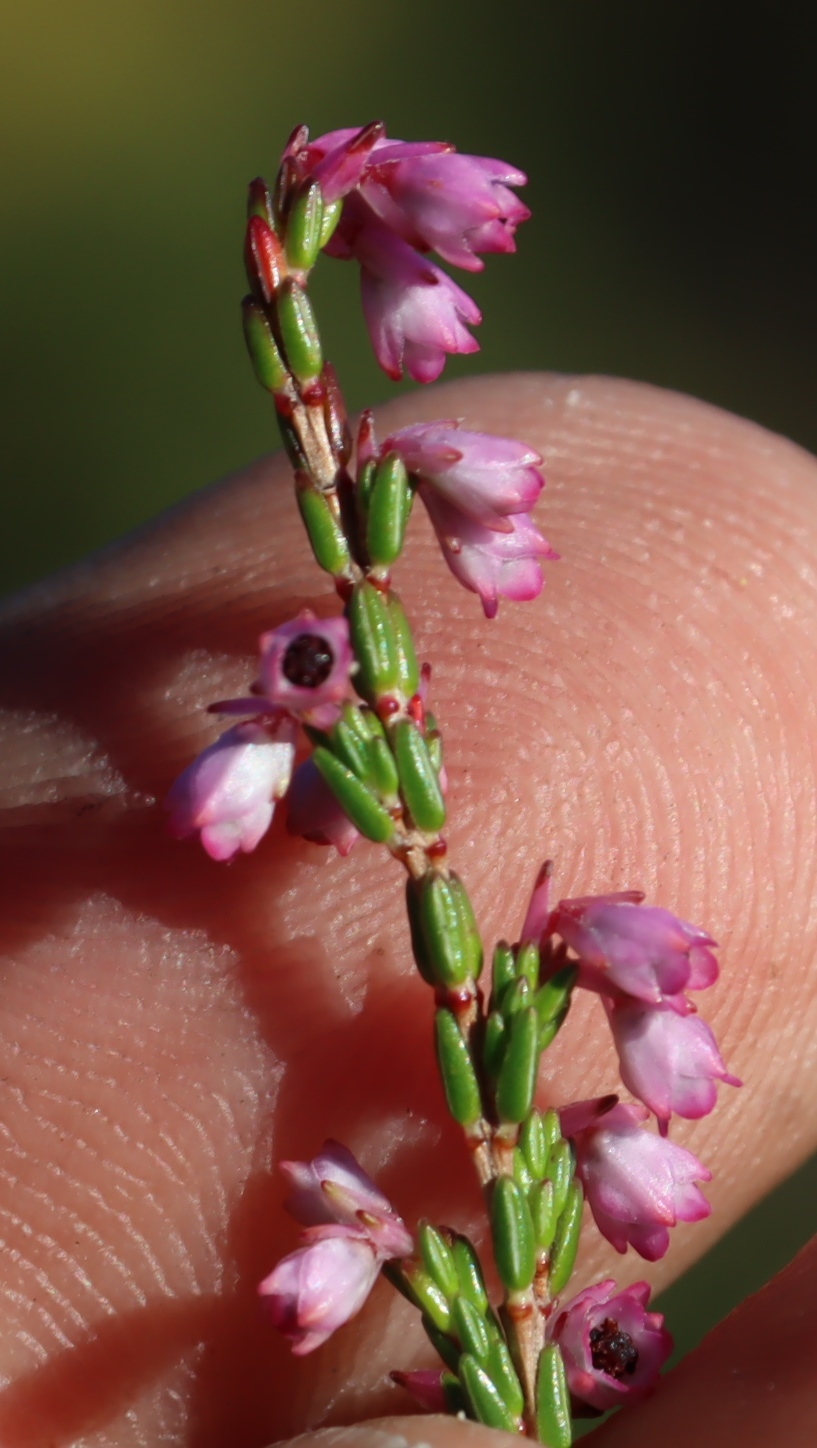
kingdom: Plantae
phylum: Tracheophyta
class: Magnoliopsida
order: Ericales
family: Ericaceae
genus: Erica
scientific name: Erica gnaphaloides
